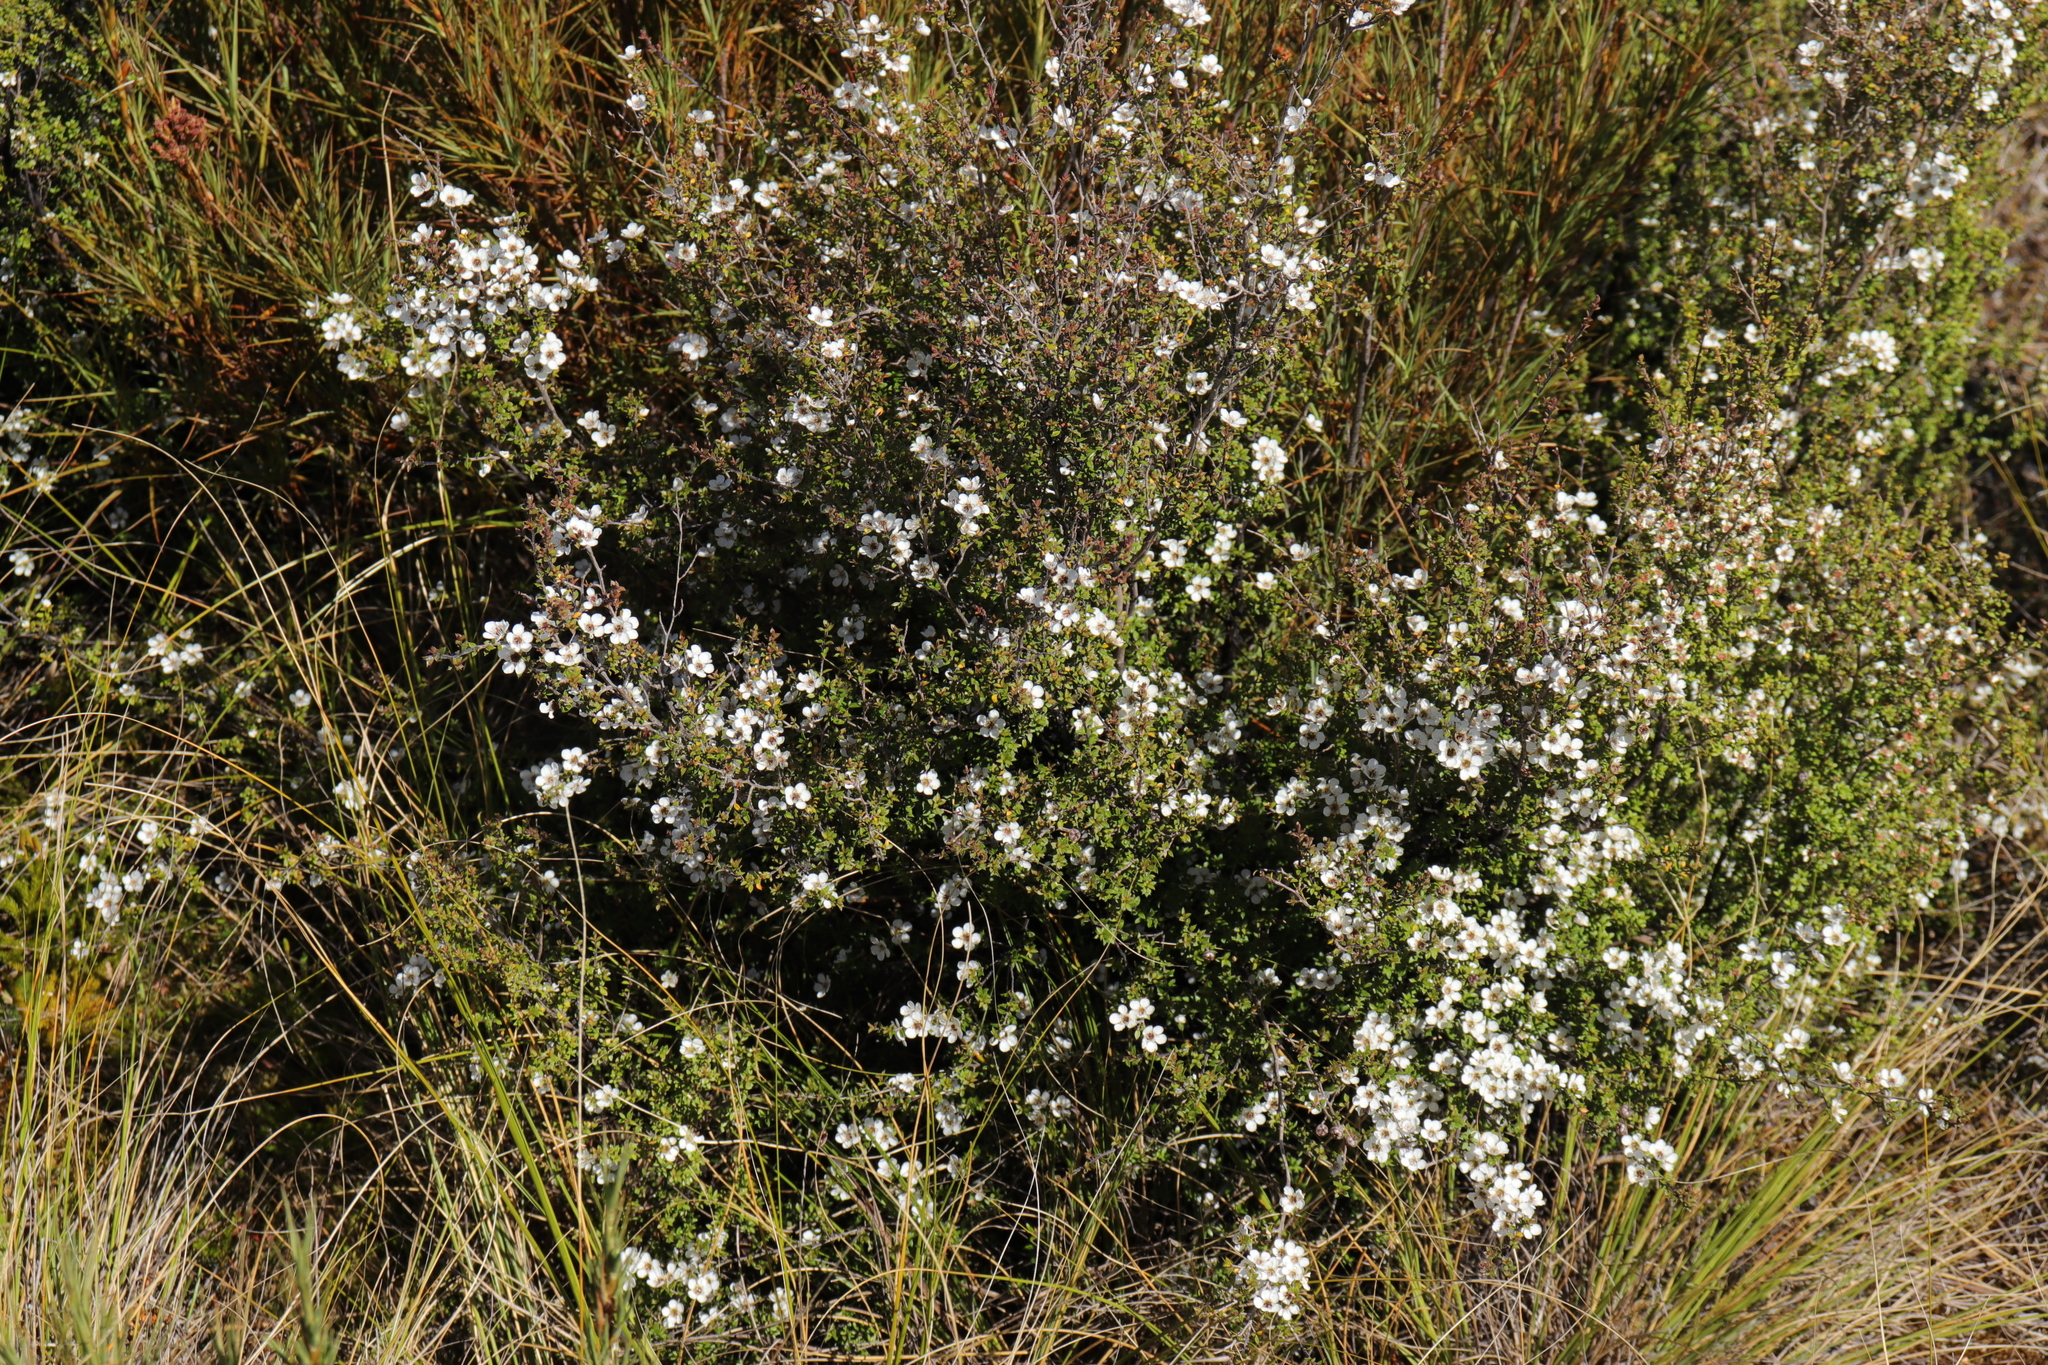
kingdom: Plantae
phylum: Tracheophyta
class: Magnoliopsida
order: Myrtales
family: Myrtaceae
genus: Leptospermum
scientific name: Leptospermum scoparium
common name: Broom tea-tree
